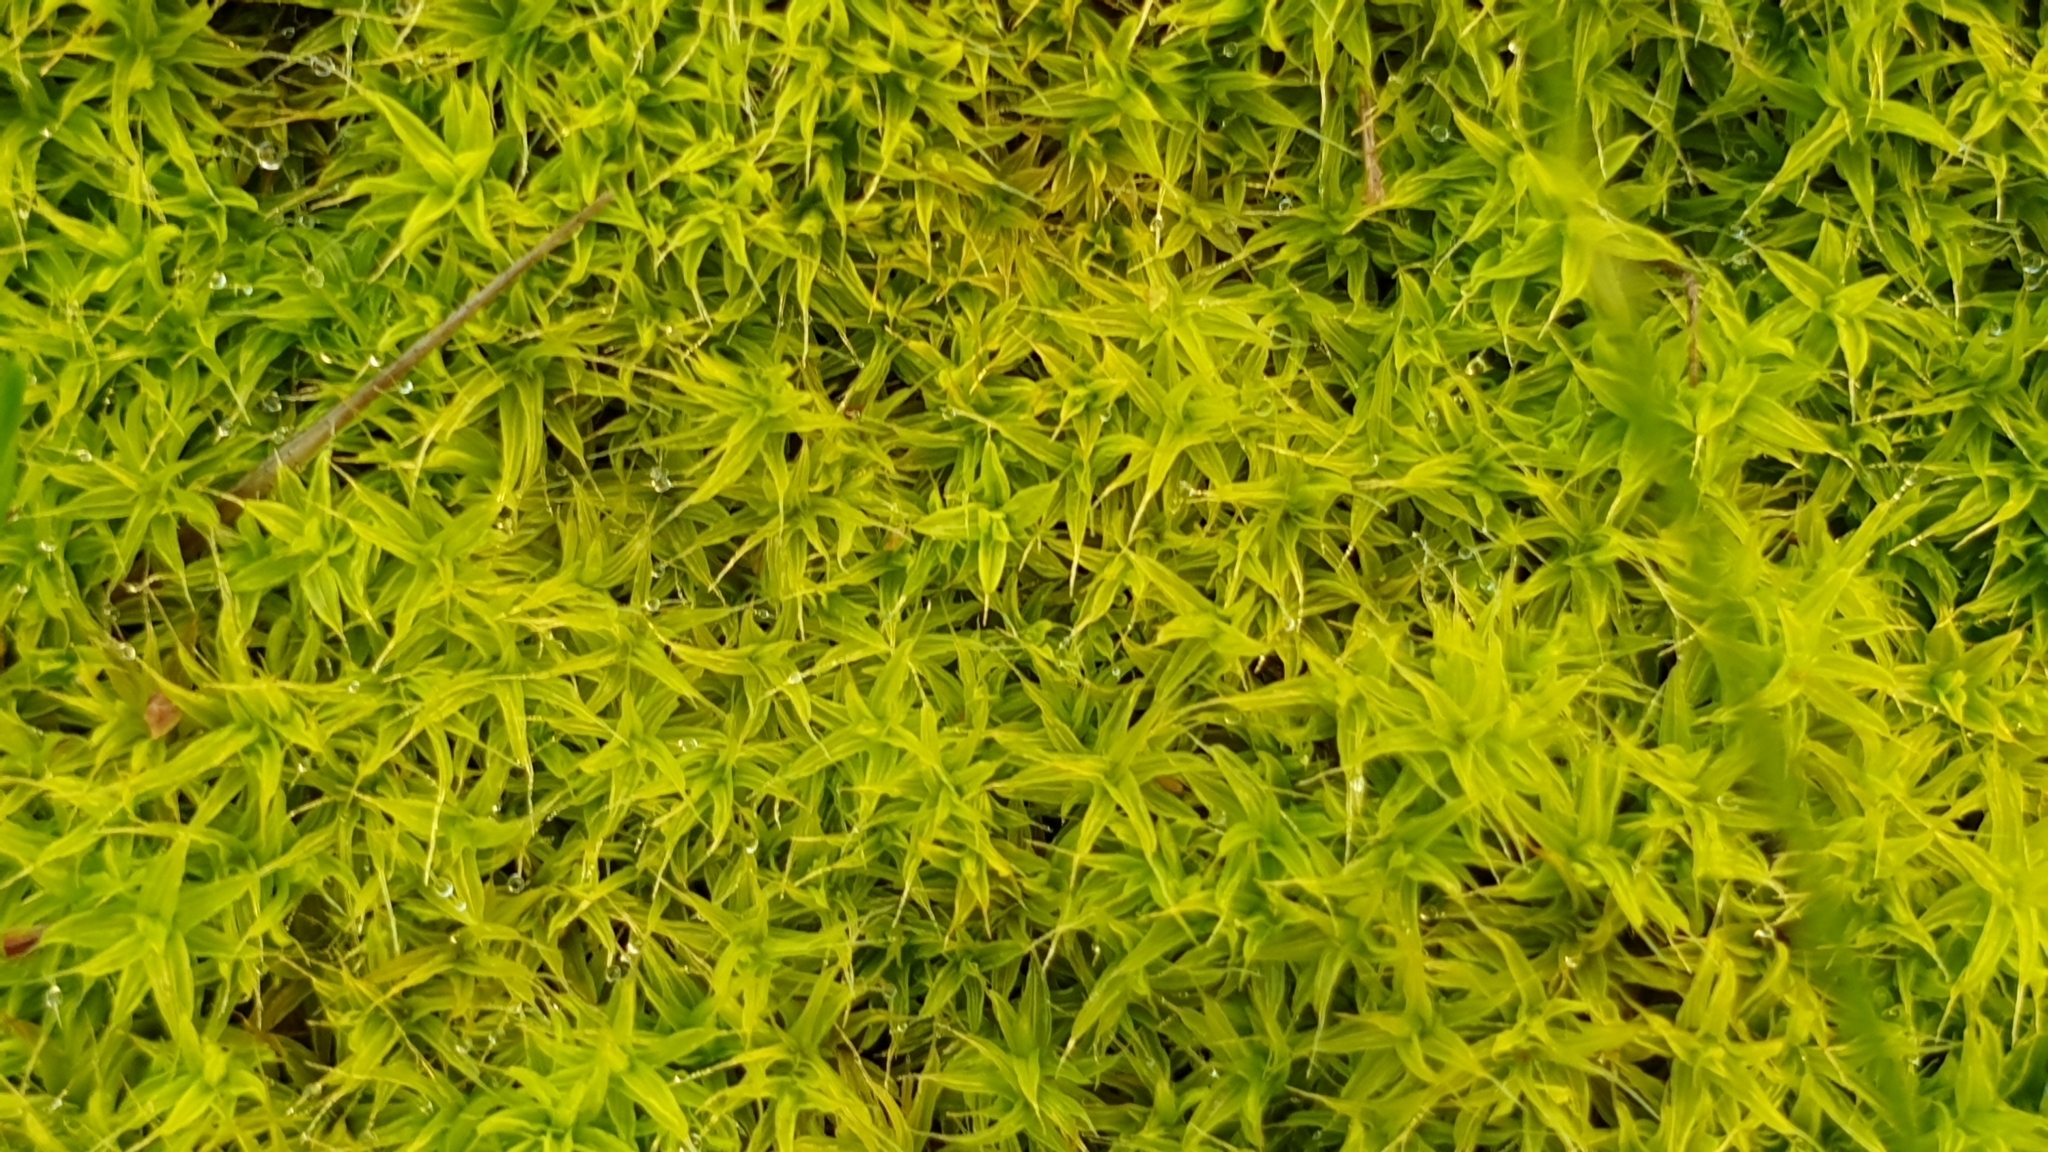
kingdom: Plantae
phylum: Bryophyta
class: Bryopsida
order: Pottiales
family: Pottiaceae
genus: Pseudocrossidium
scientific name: Pseudocrossidium crinitum
